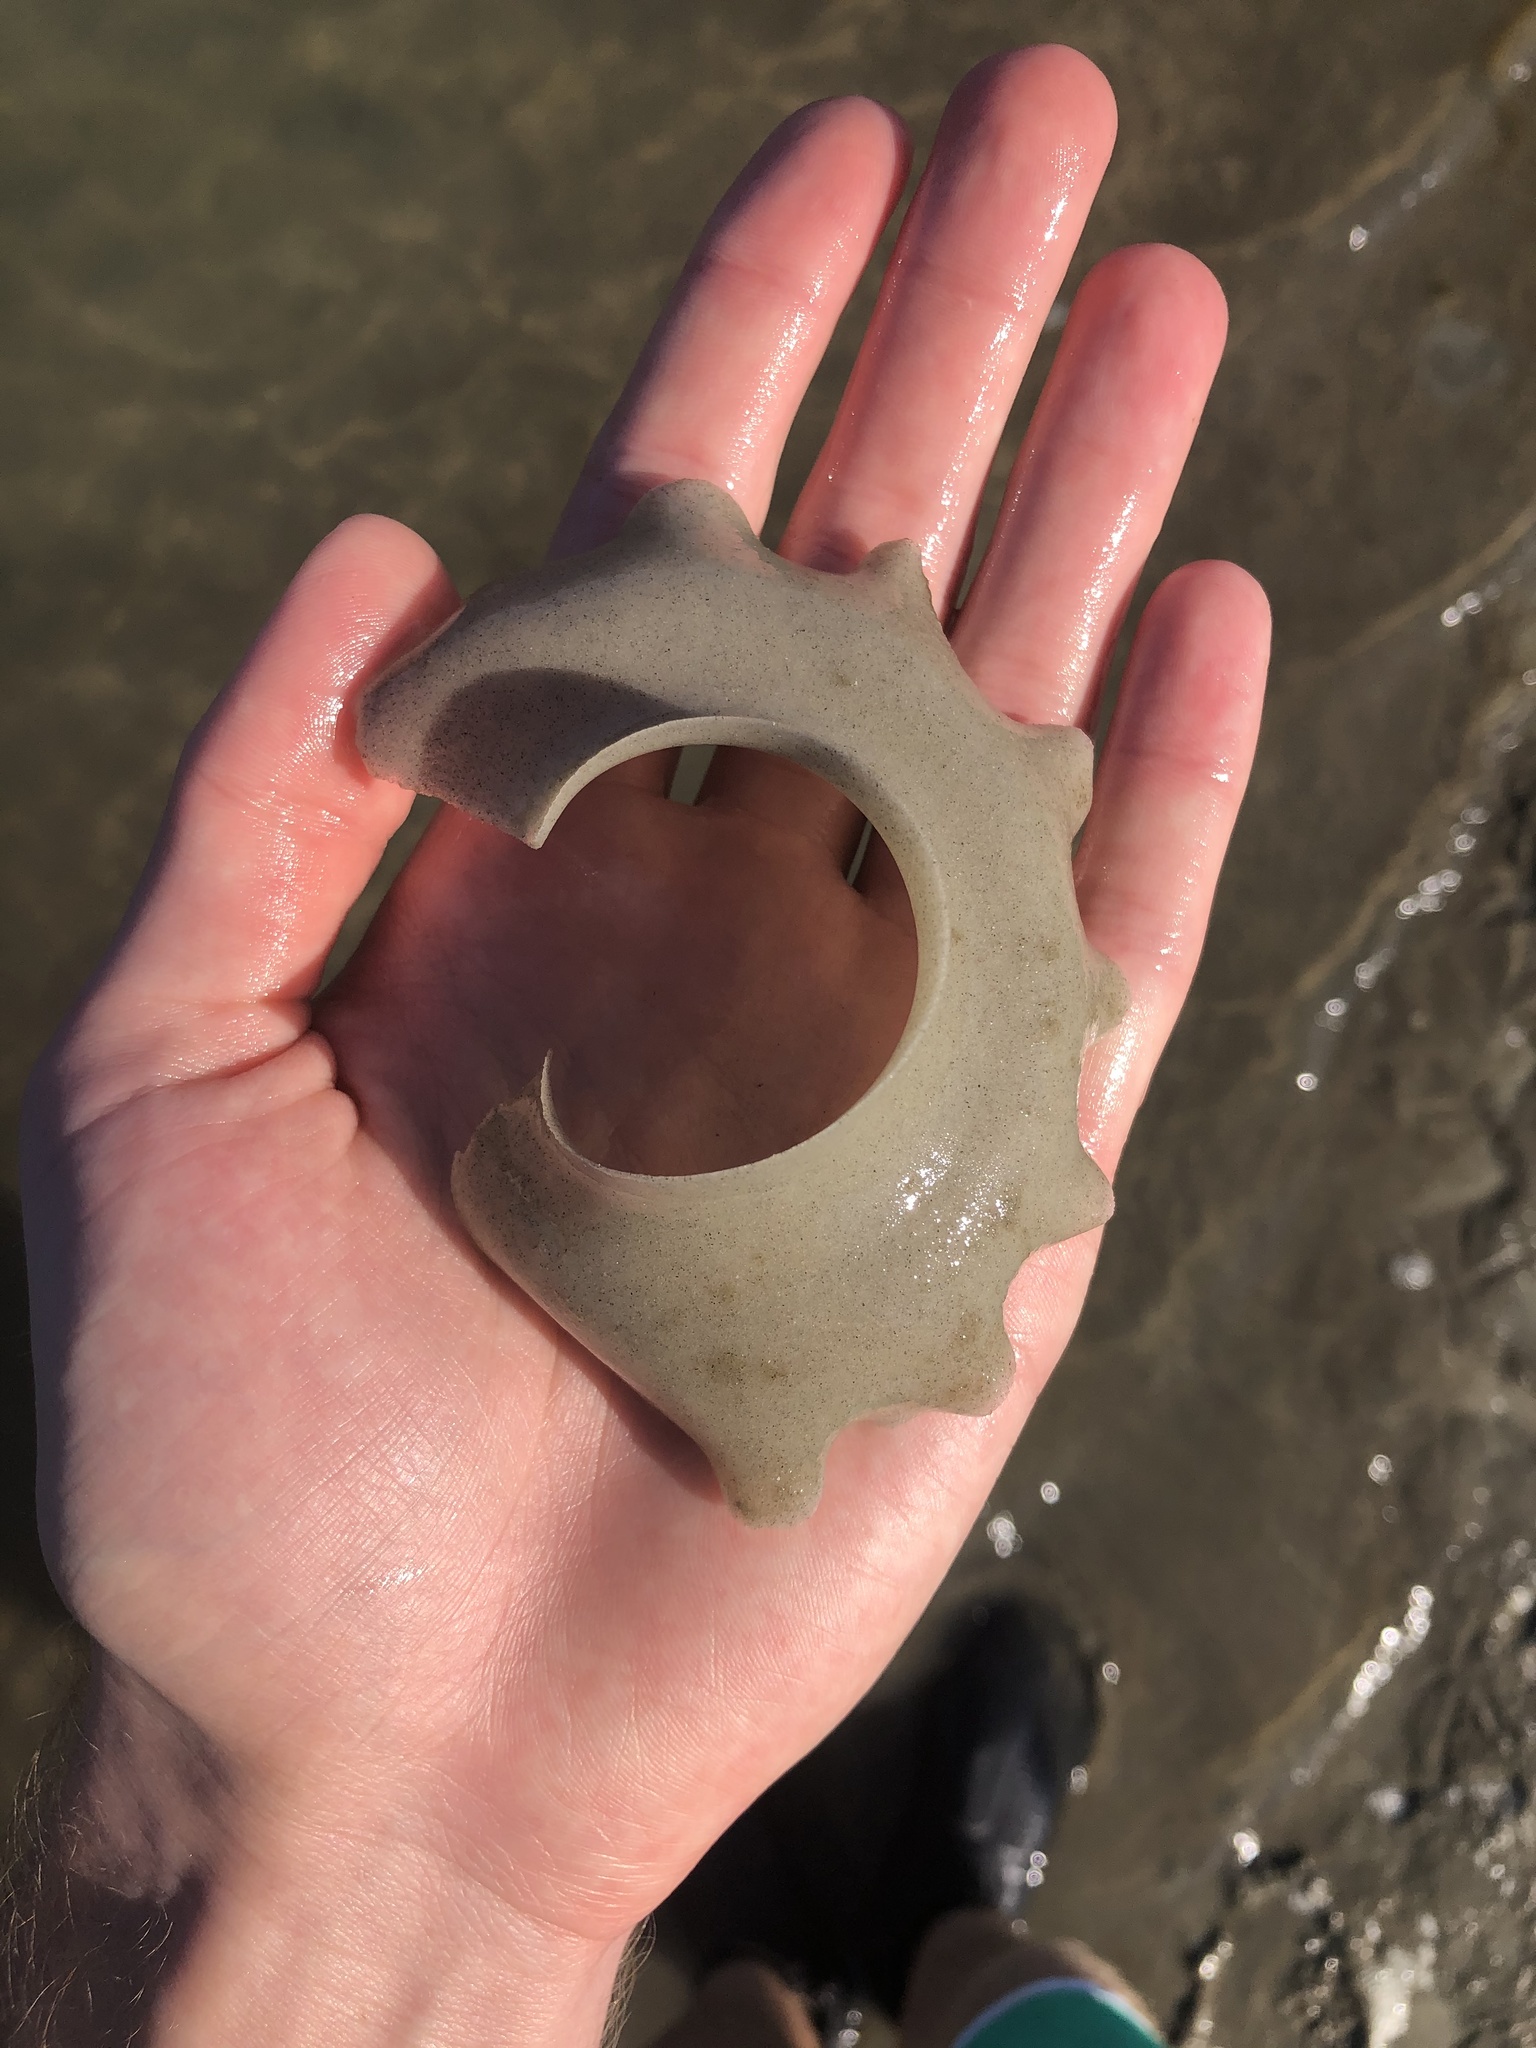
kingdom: Animalia
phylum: Mollusca
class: Gastropoda
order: Littorinimorpha
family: Naticidae
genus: Neverita
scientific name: Neverita
